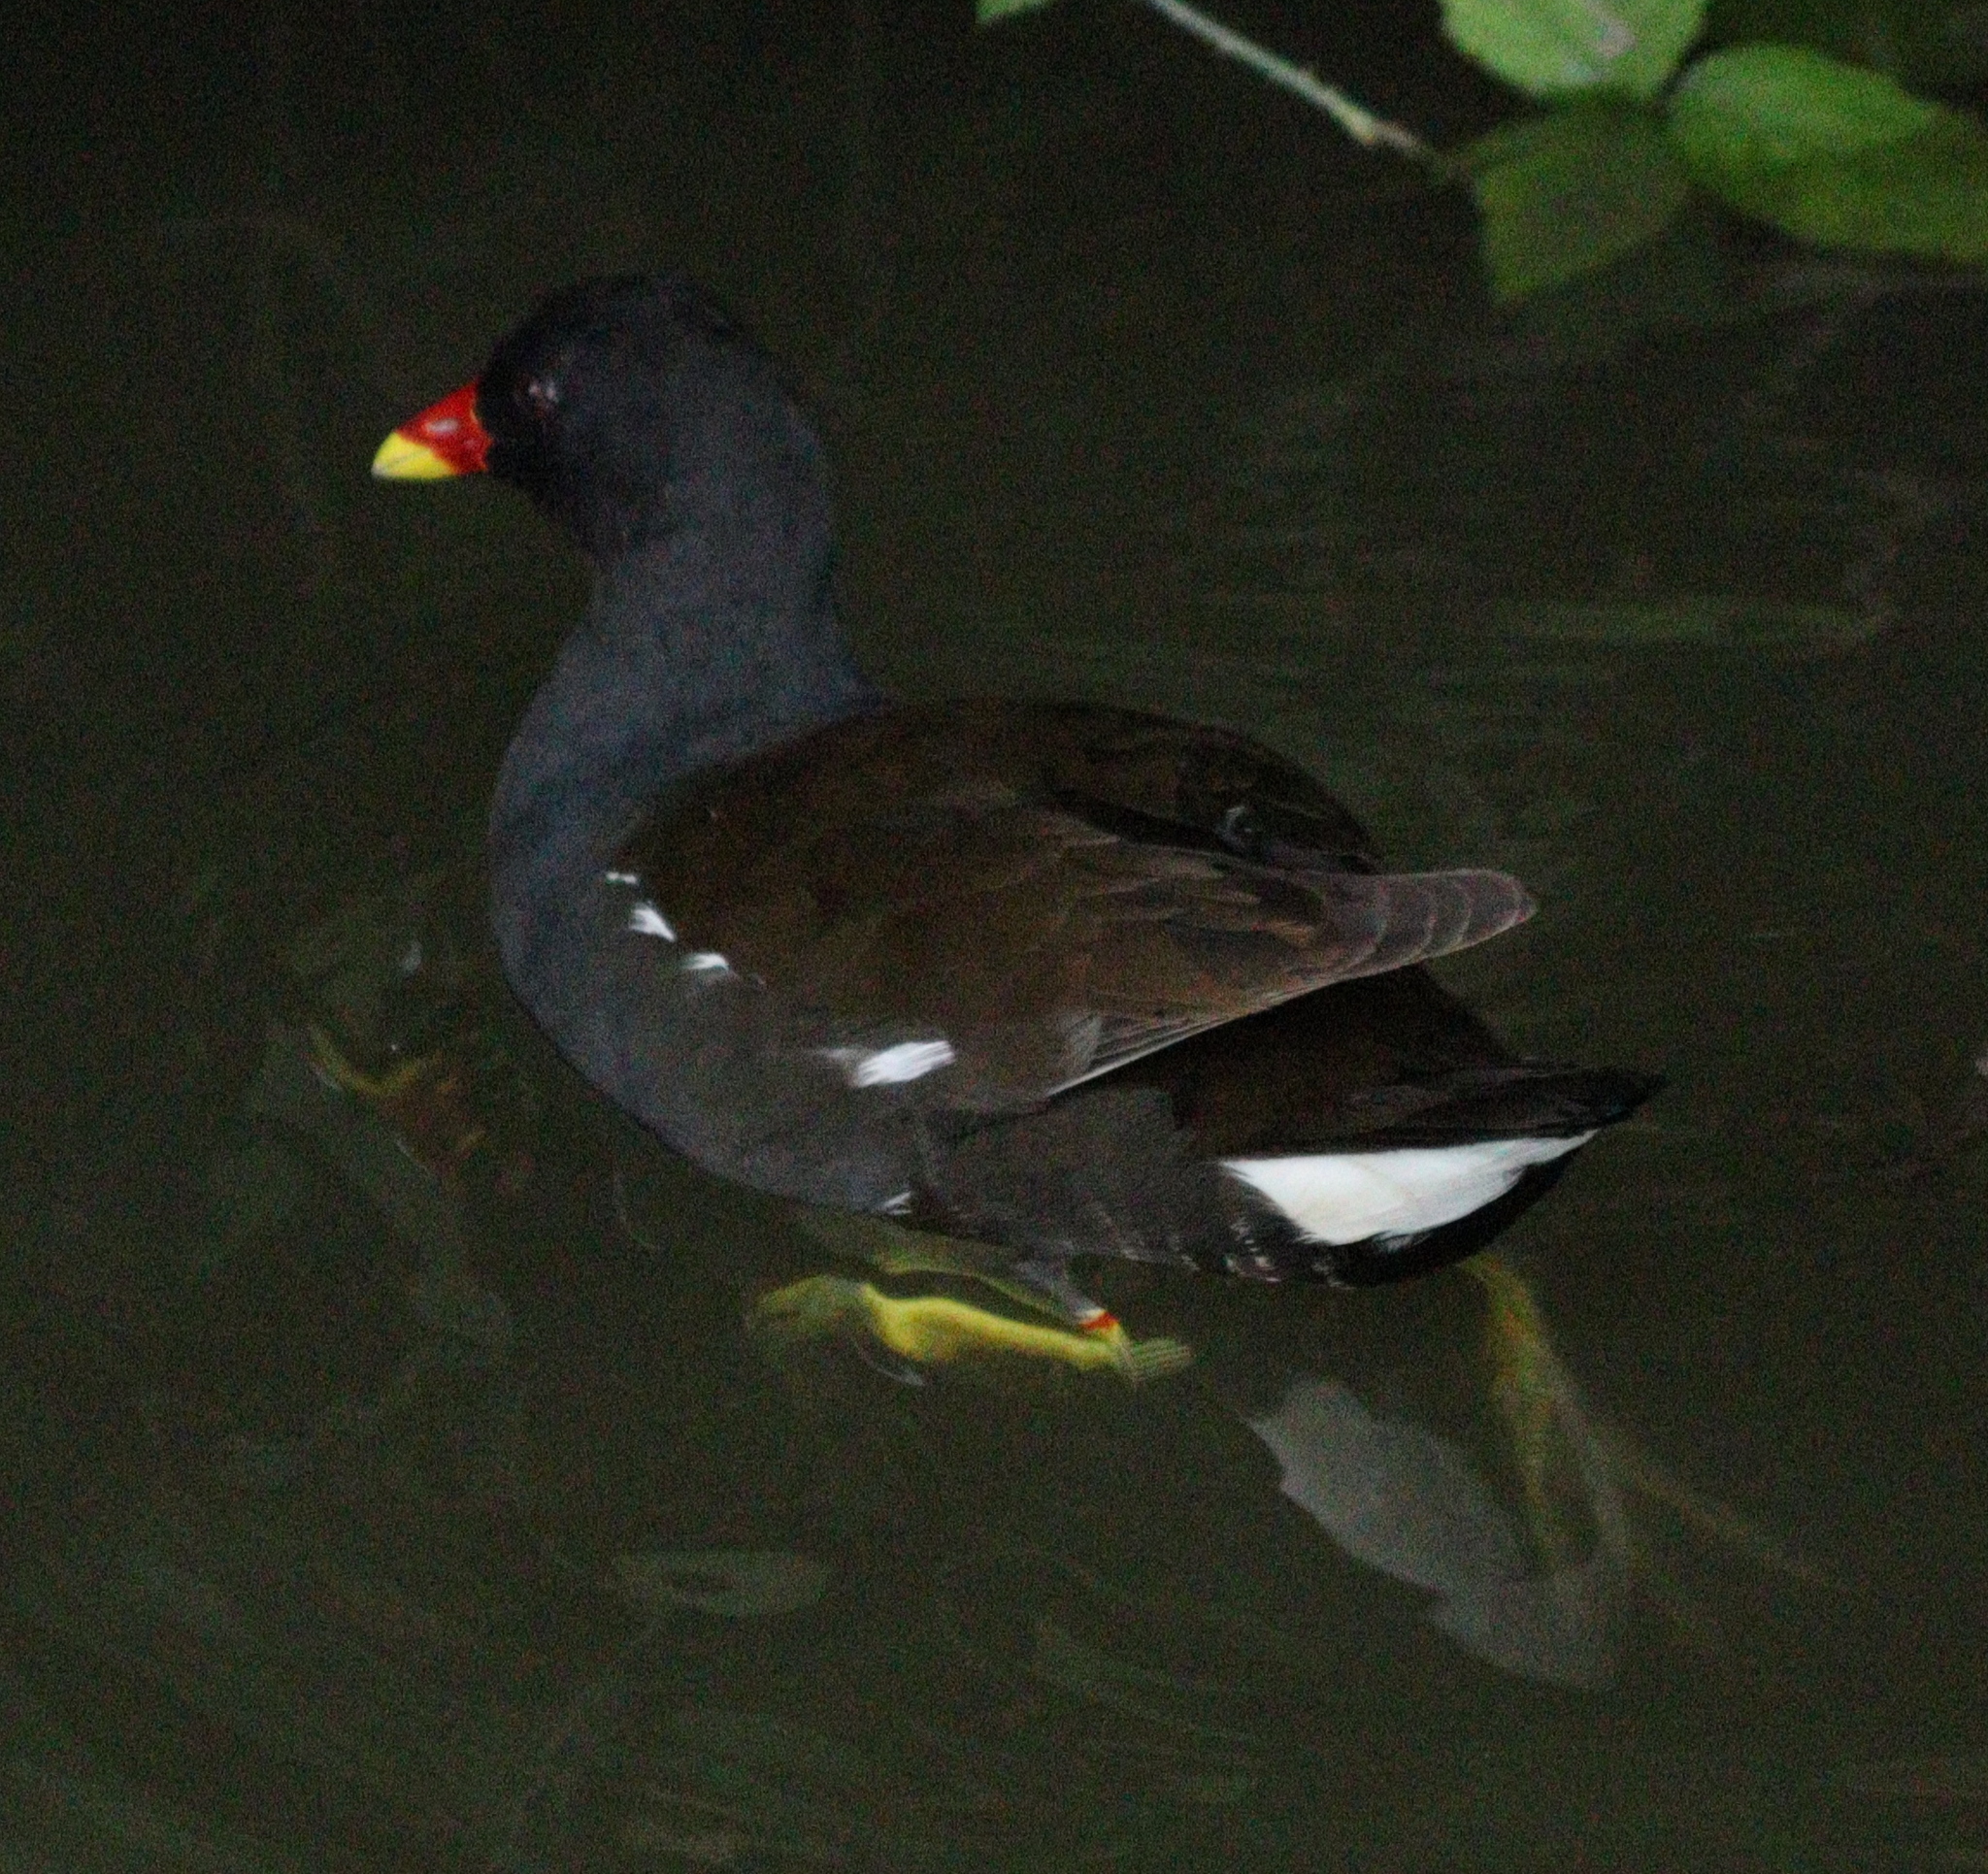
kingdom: Animalia
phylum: Chordata
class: Aves
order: Gruiformes
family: Rallidae
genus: Gallinula
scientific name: Gallinula chloropus
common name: Common moorhen
